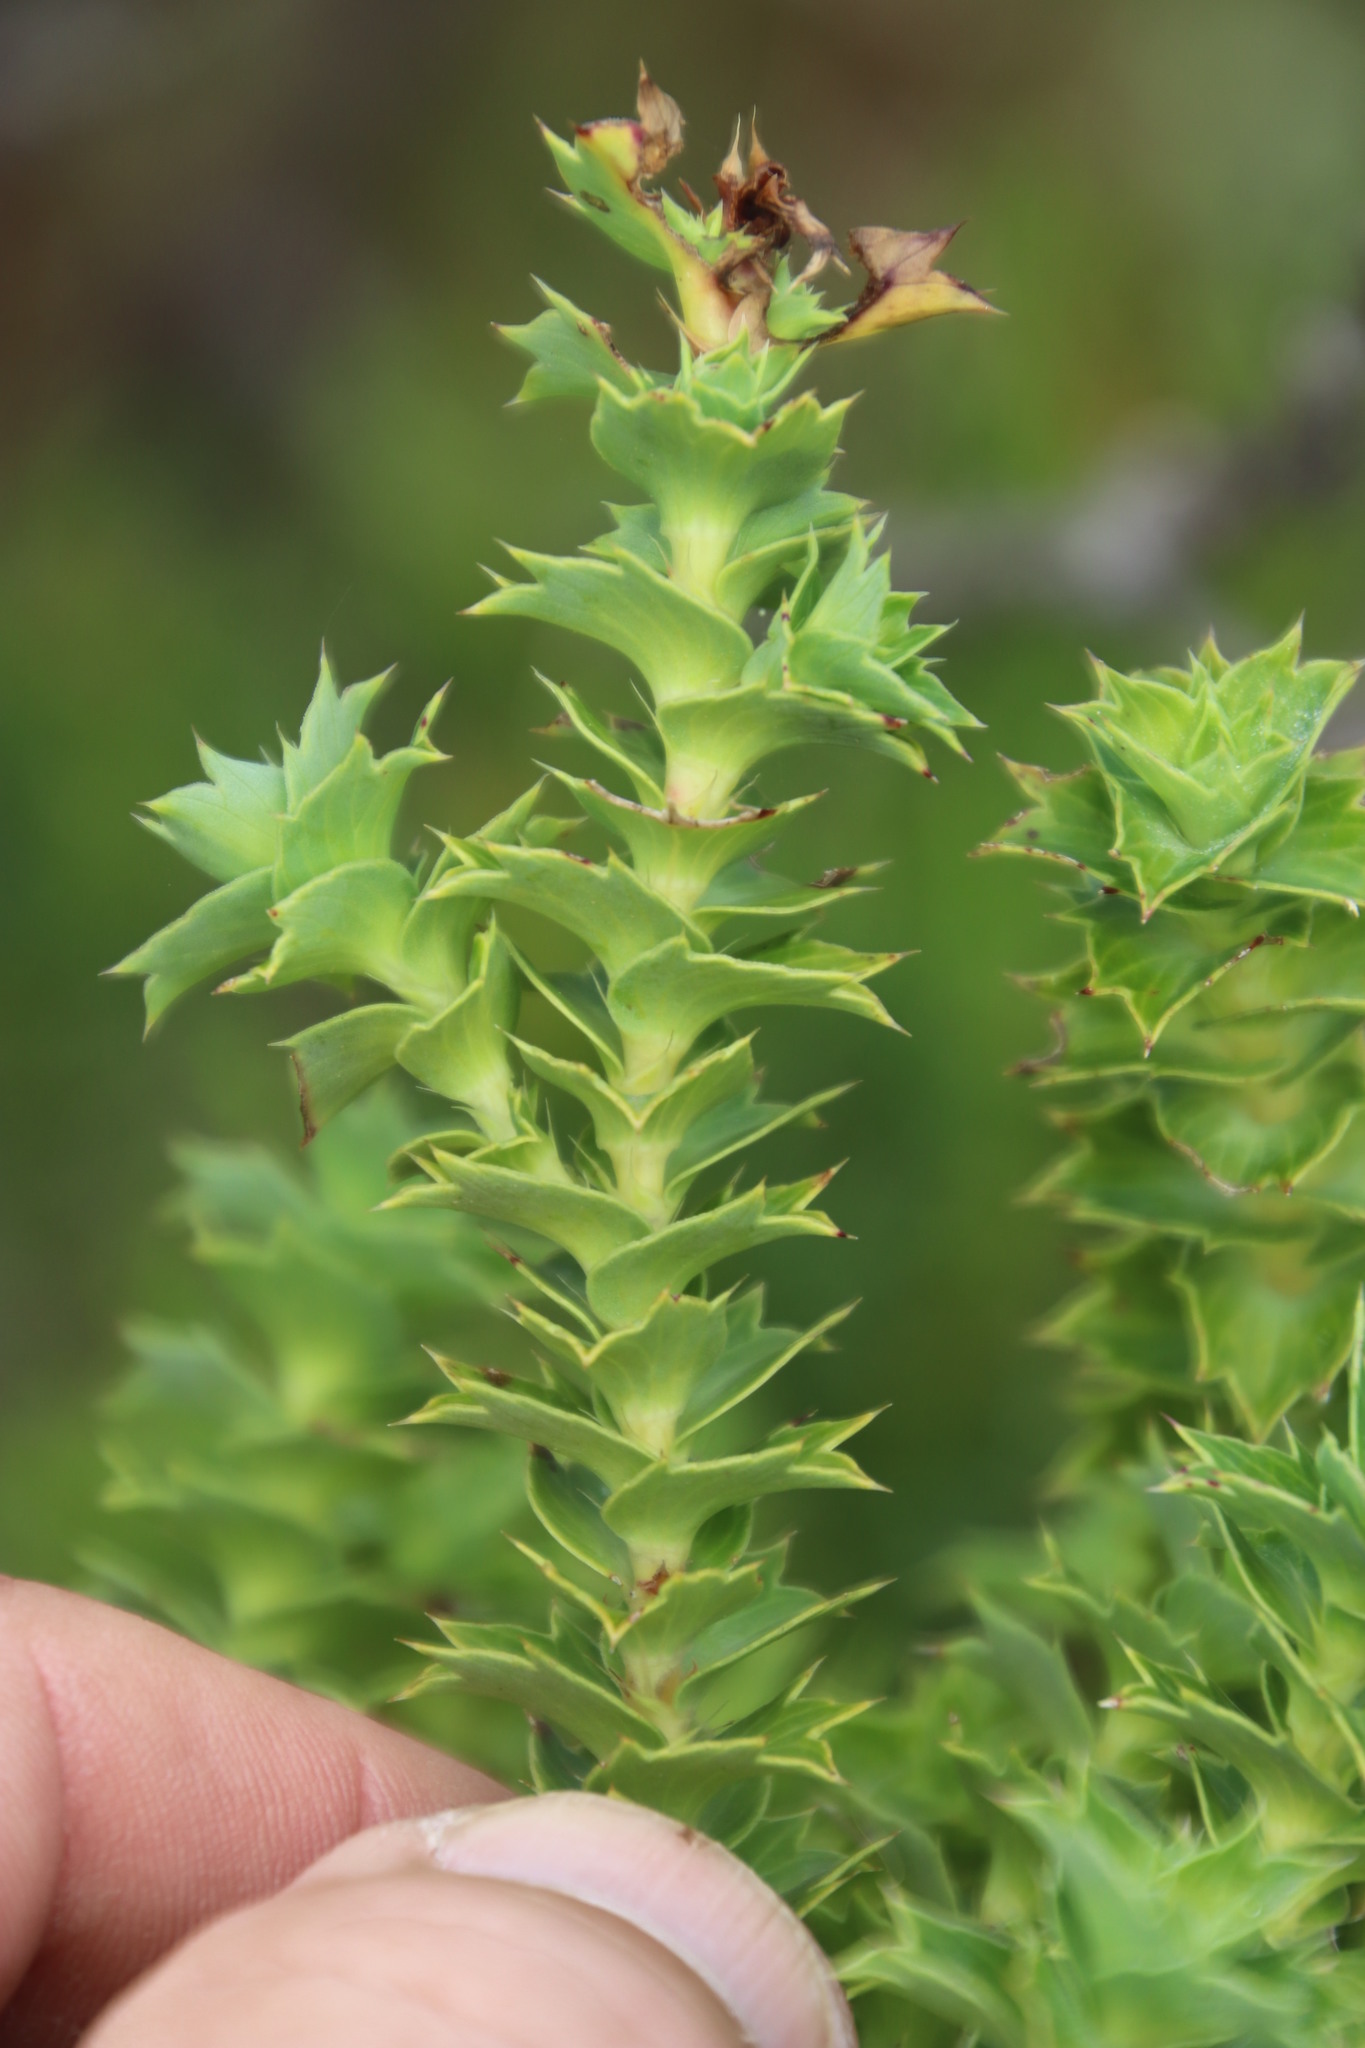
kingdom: Plantae
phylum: Tracheophyta
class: Magnoliopsida
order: Rosales
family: Rosaceae
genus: Cliffortia
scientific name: Cliffortia ilicifolia
